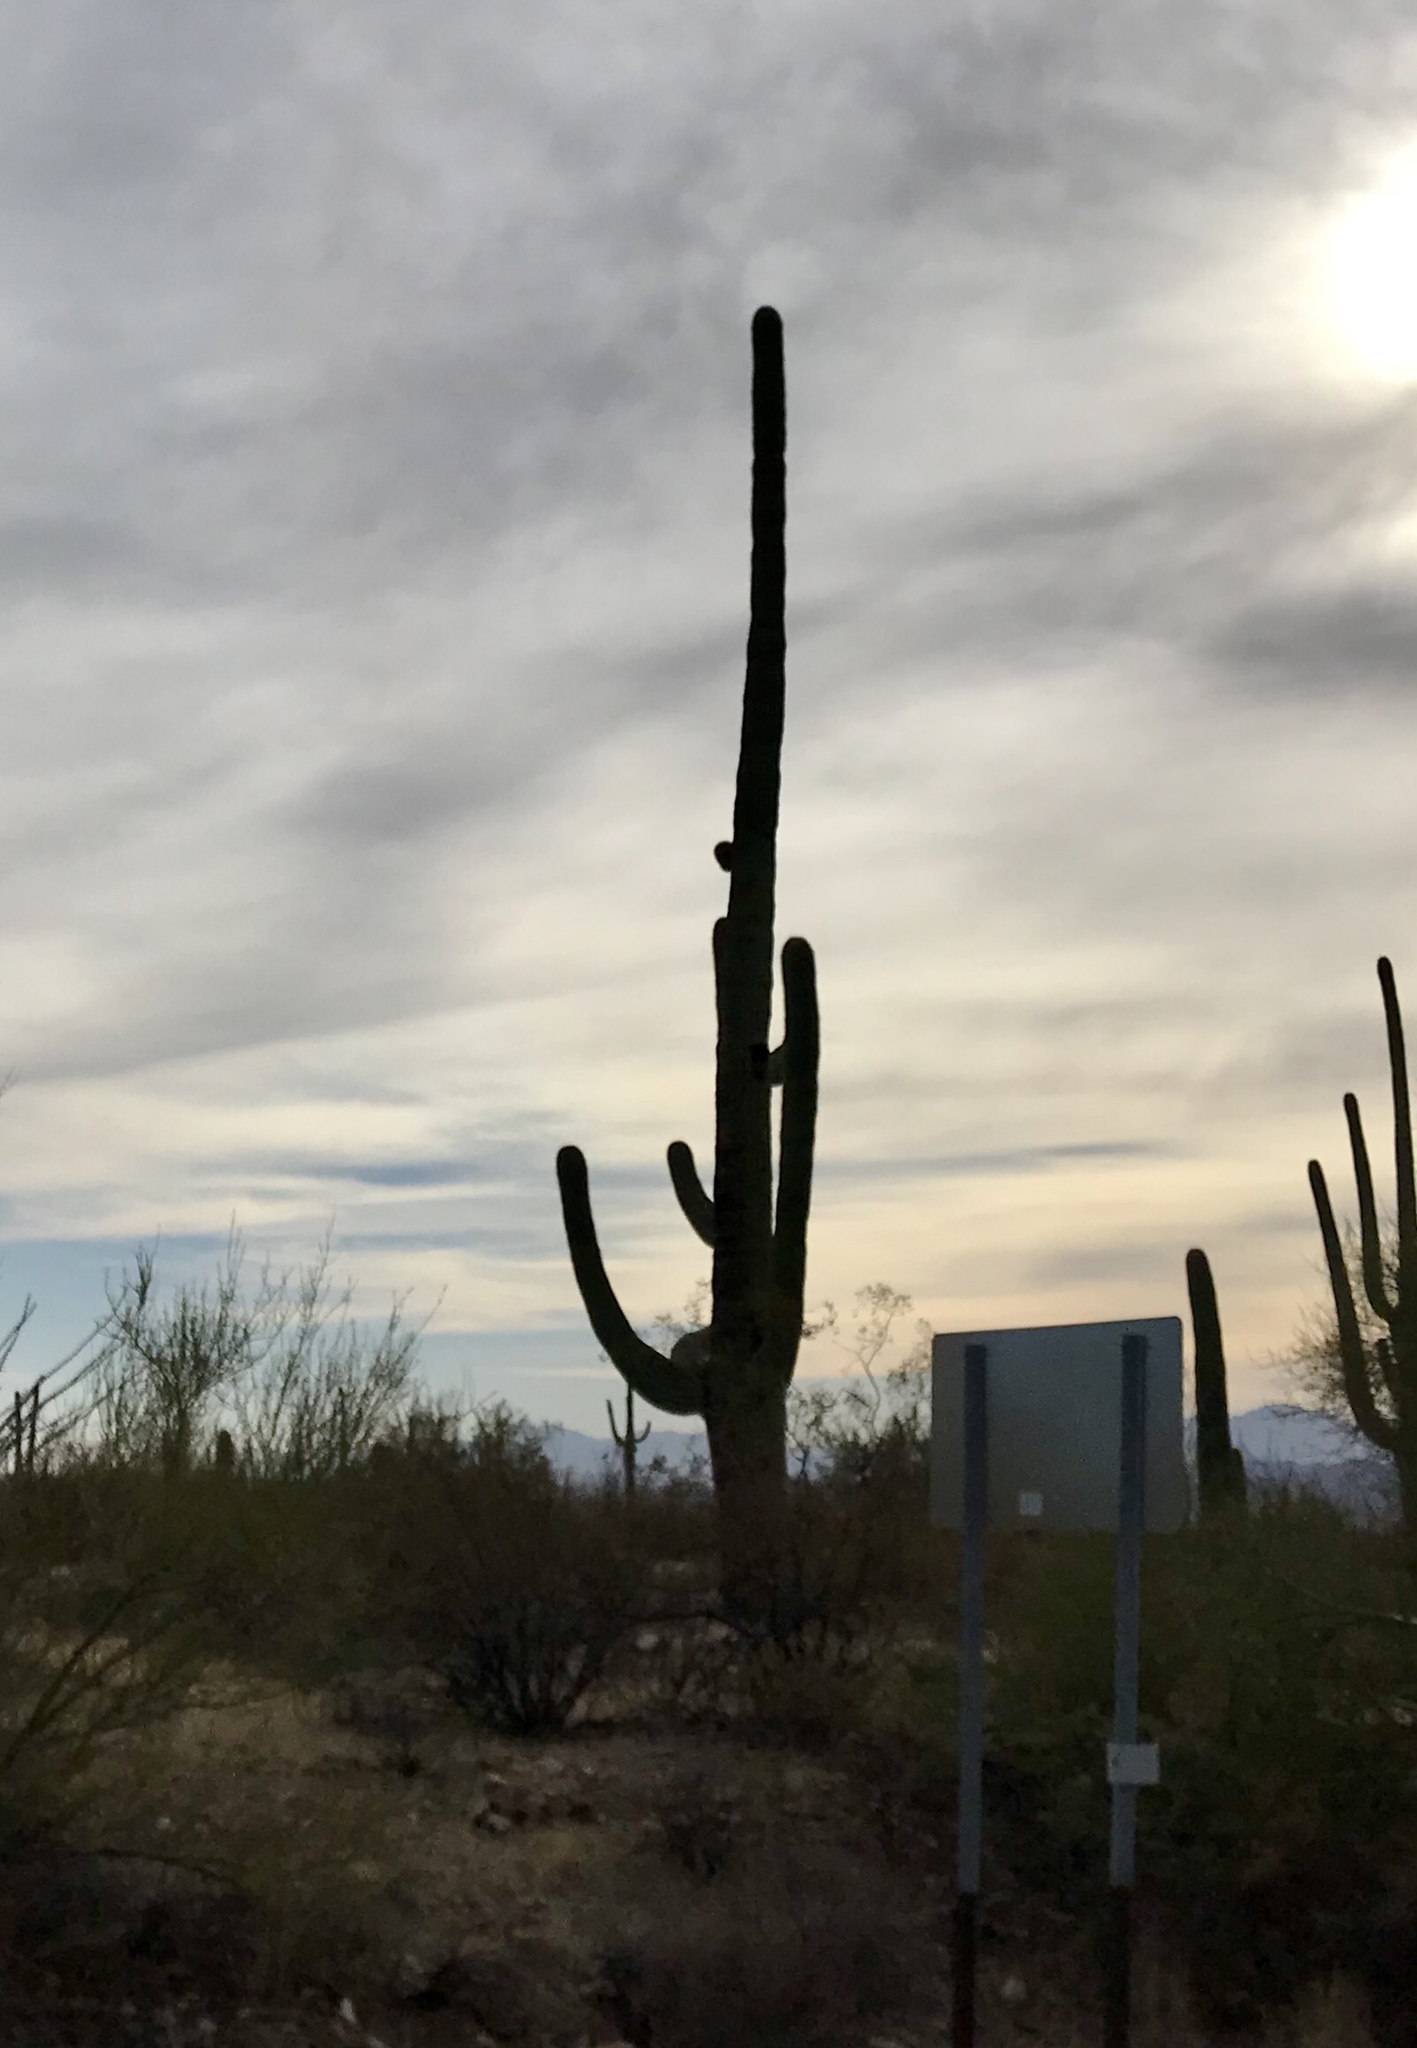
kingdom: Plantae
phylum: Tracheophyta
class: Magnoliopsida
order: Caryophyllales
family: Cactaceae
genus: Carnegiea
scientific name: Carnegiea gigantea
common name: Saguaro
